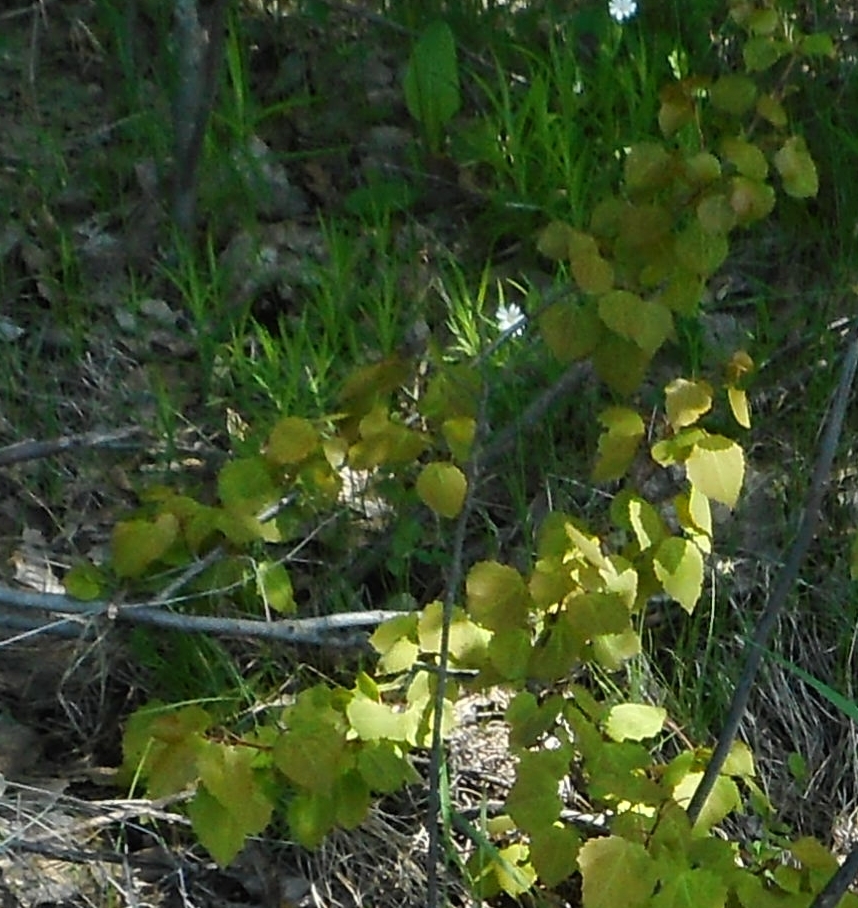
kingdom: Plantae
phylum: Tracheophyta
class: Magnoliopsida
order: Malpighiales
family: Salicaceae
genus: Populus
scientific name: Populus tremula
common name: European aspen
